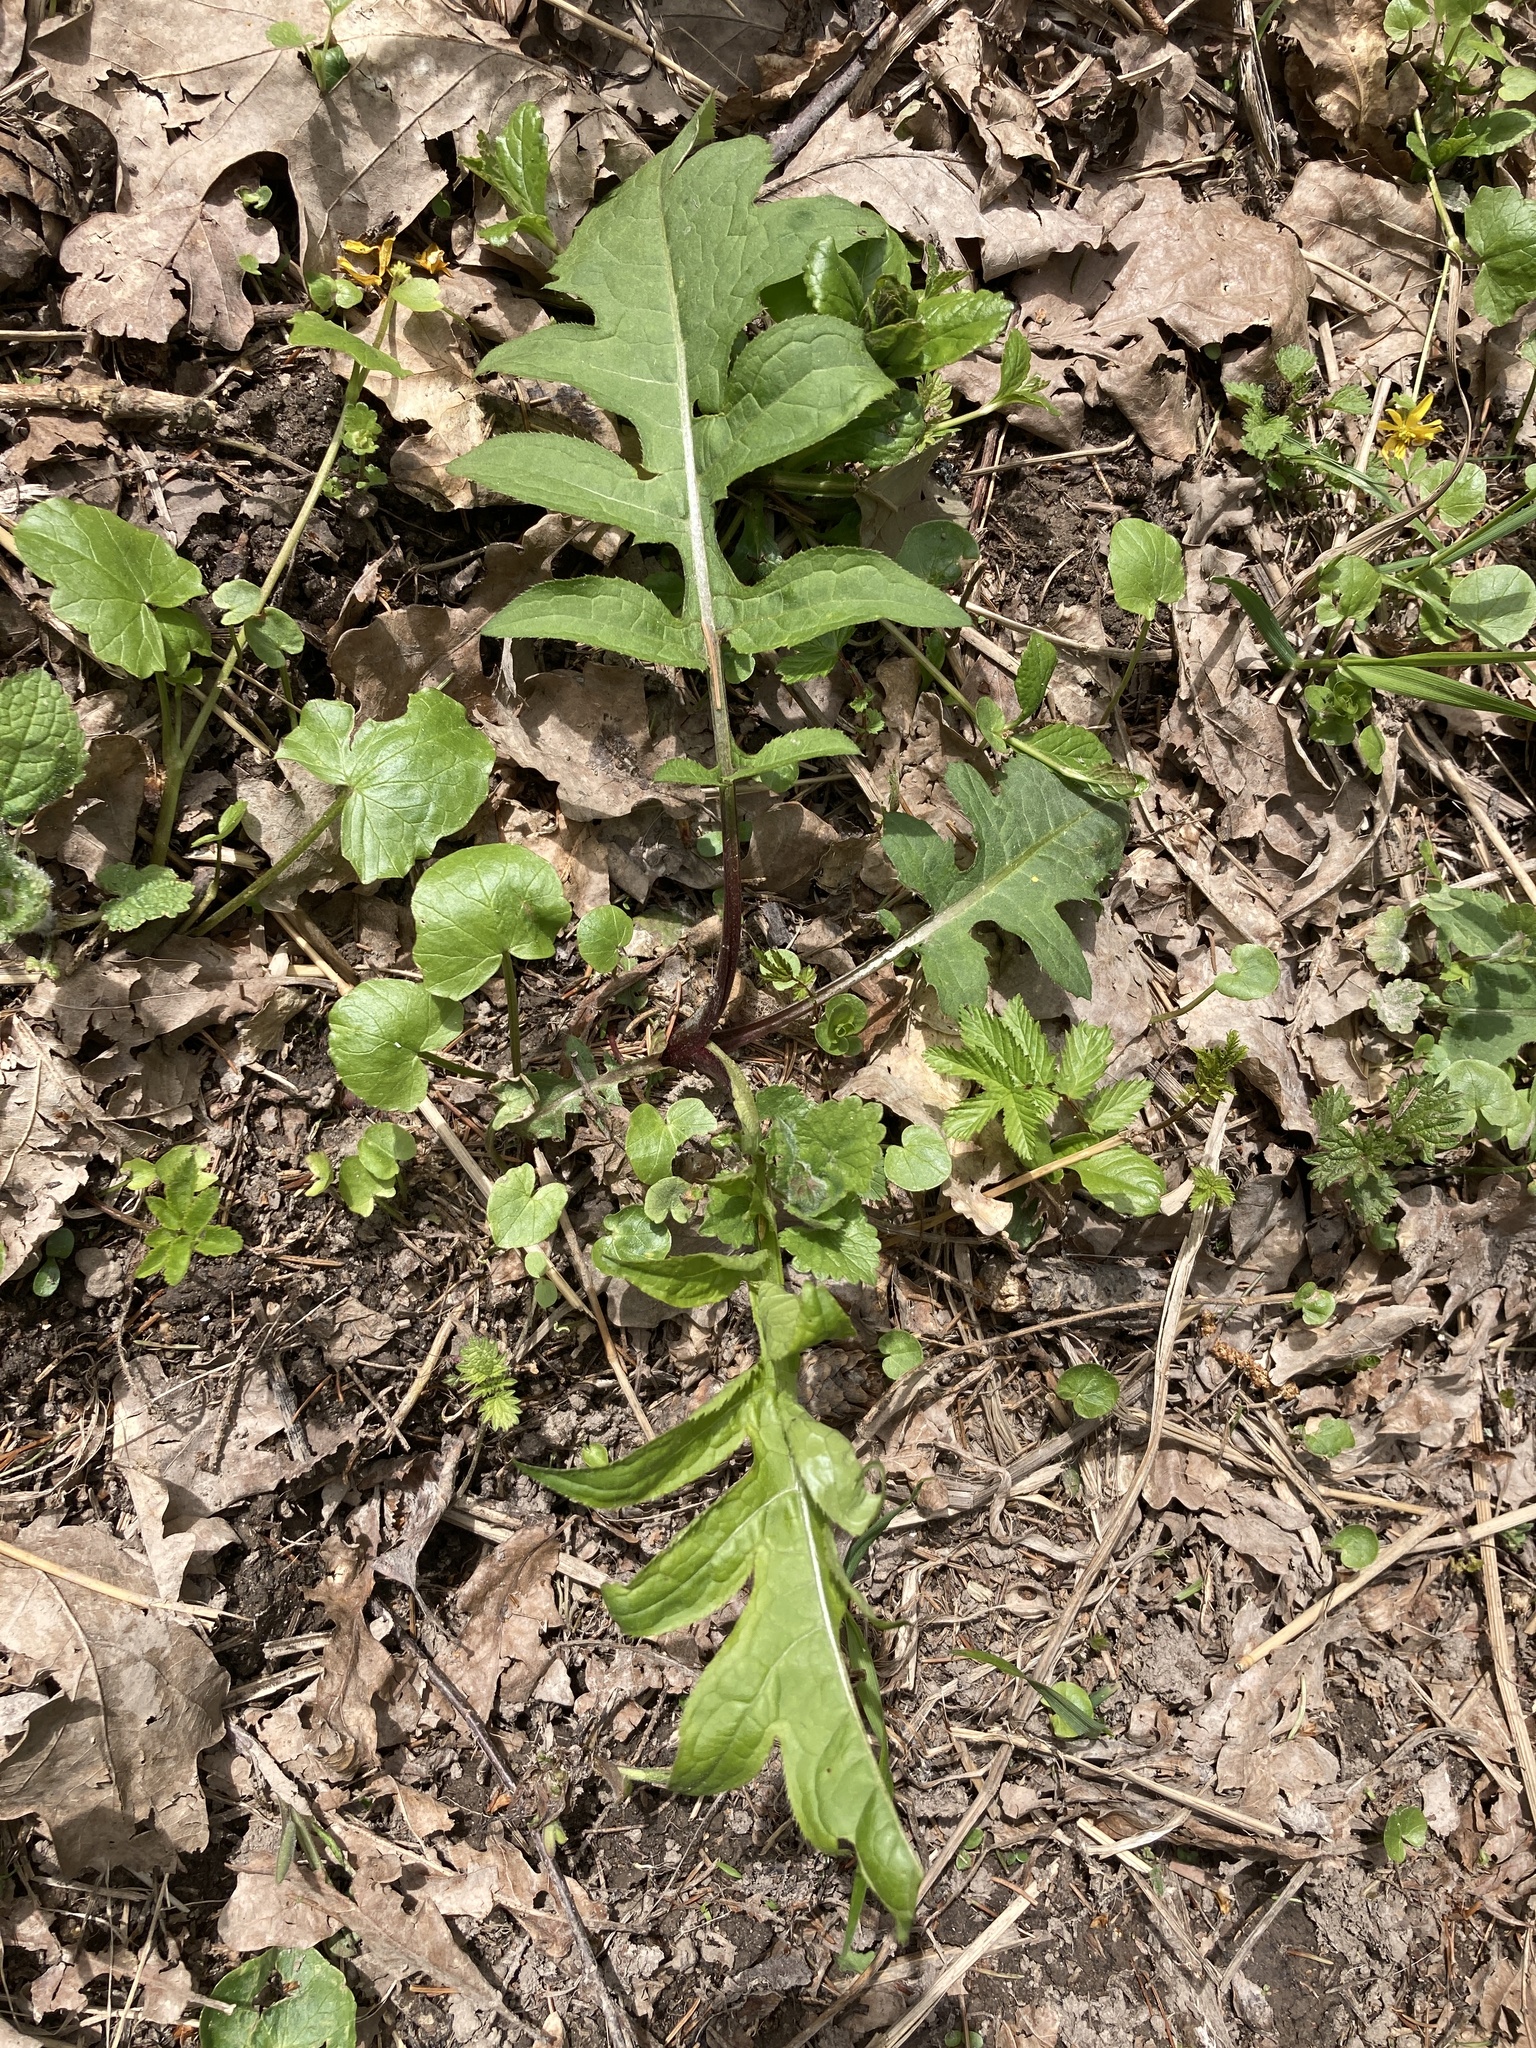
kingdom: Plantae
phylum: Tracheophyta
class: Magnoliopsida
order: Asterales
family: Asteraceae
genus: Cirsium
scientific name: Cirsium oleraceum
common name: Cabbage thistle
